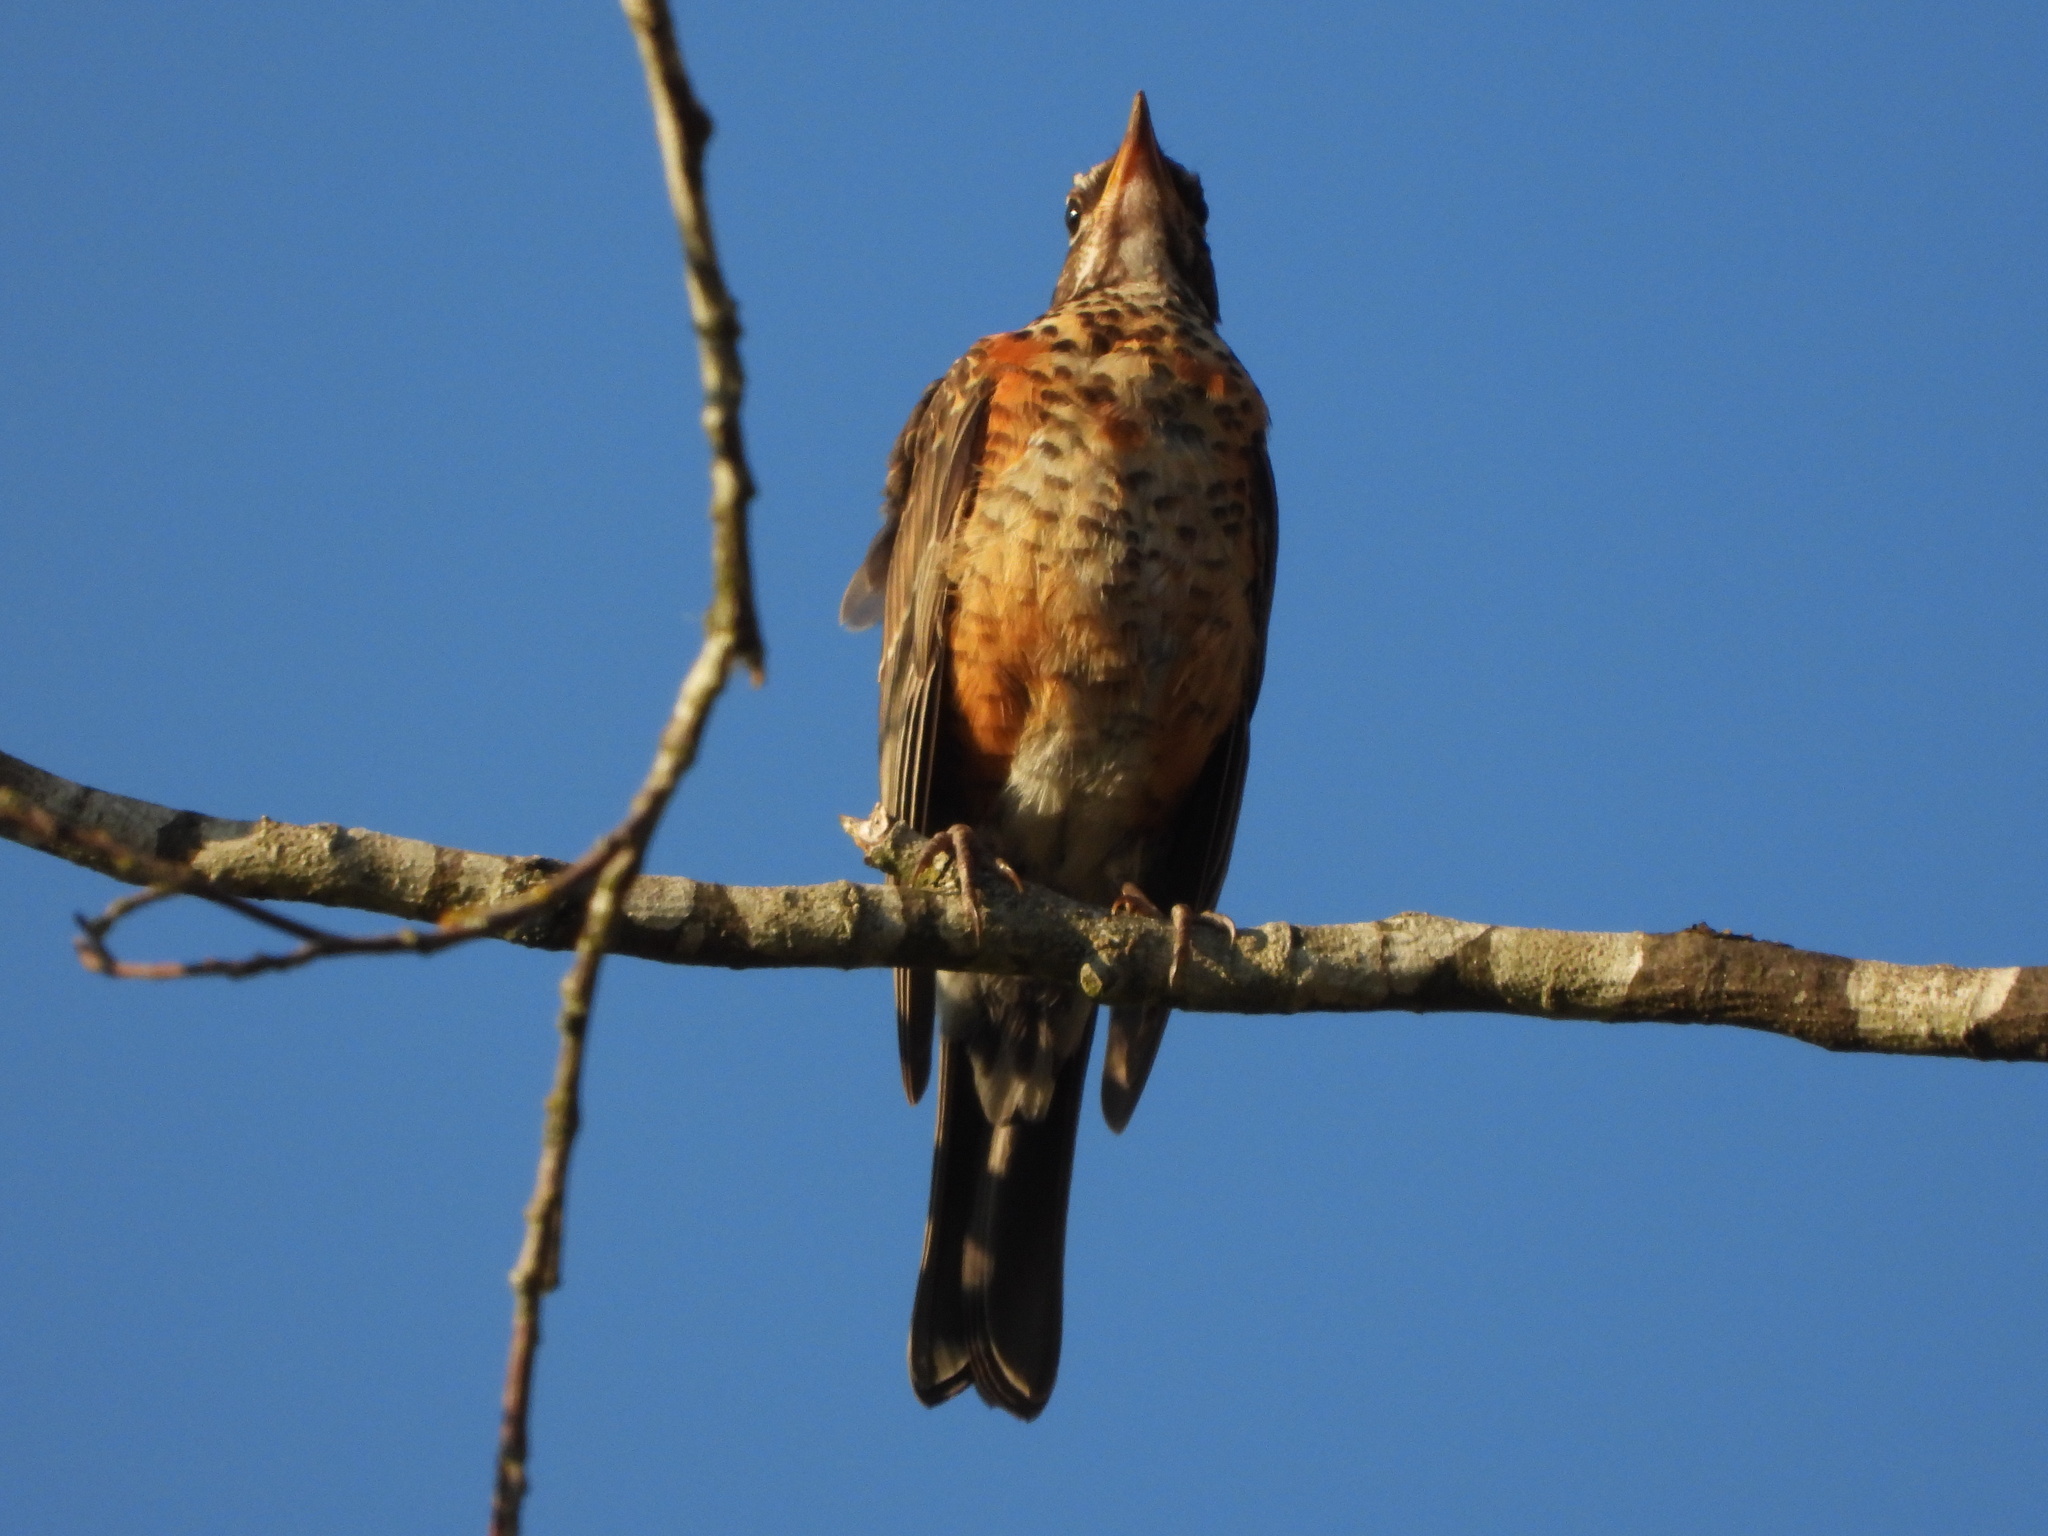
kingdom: Animalia
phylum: Chordata
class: Aves
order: Passeriformes
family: Turdidae
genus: Turdus
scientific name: Turdus migratorius
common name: American robin
